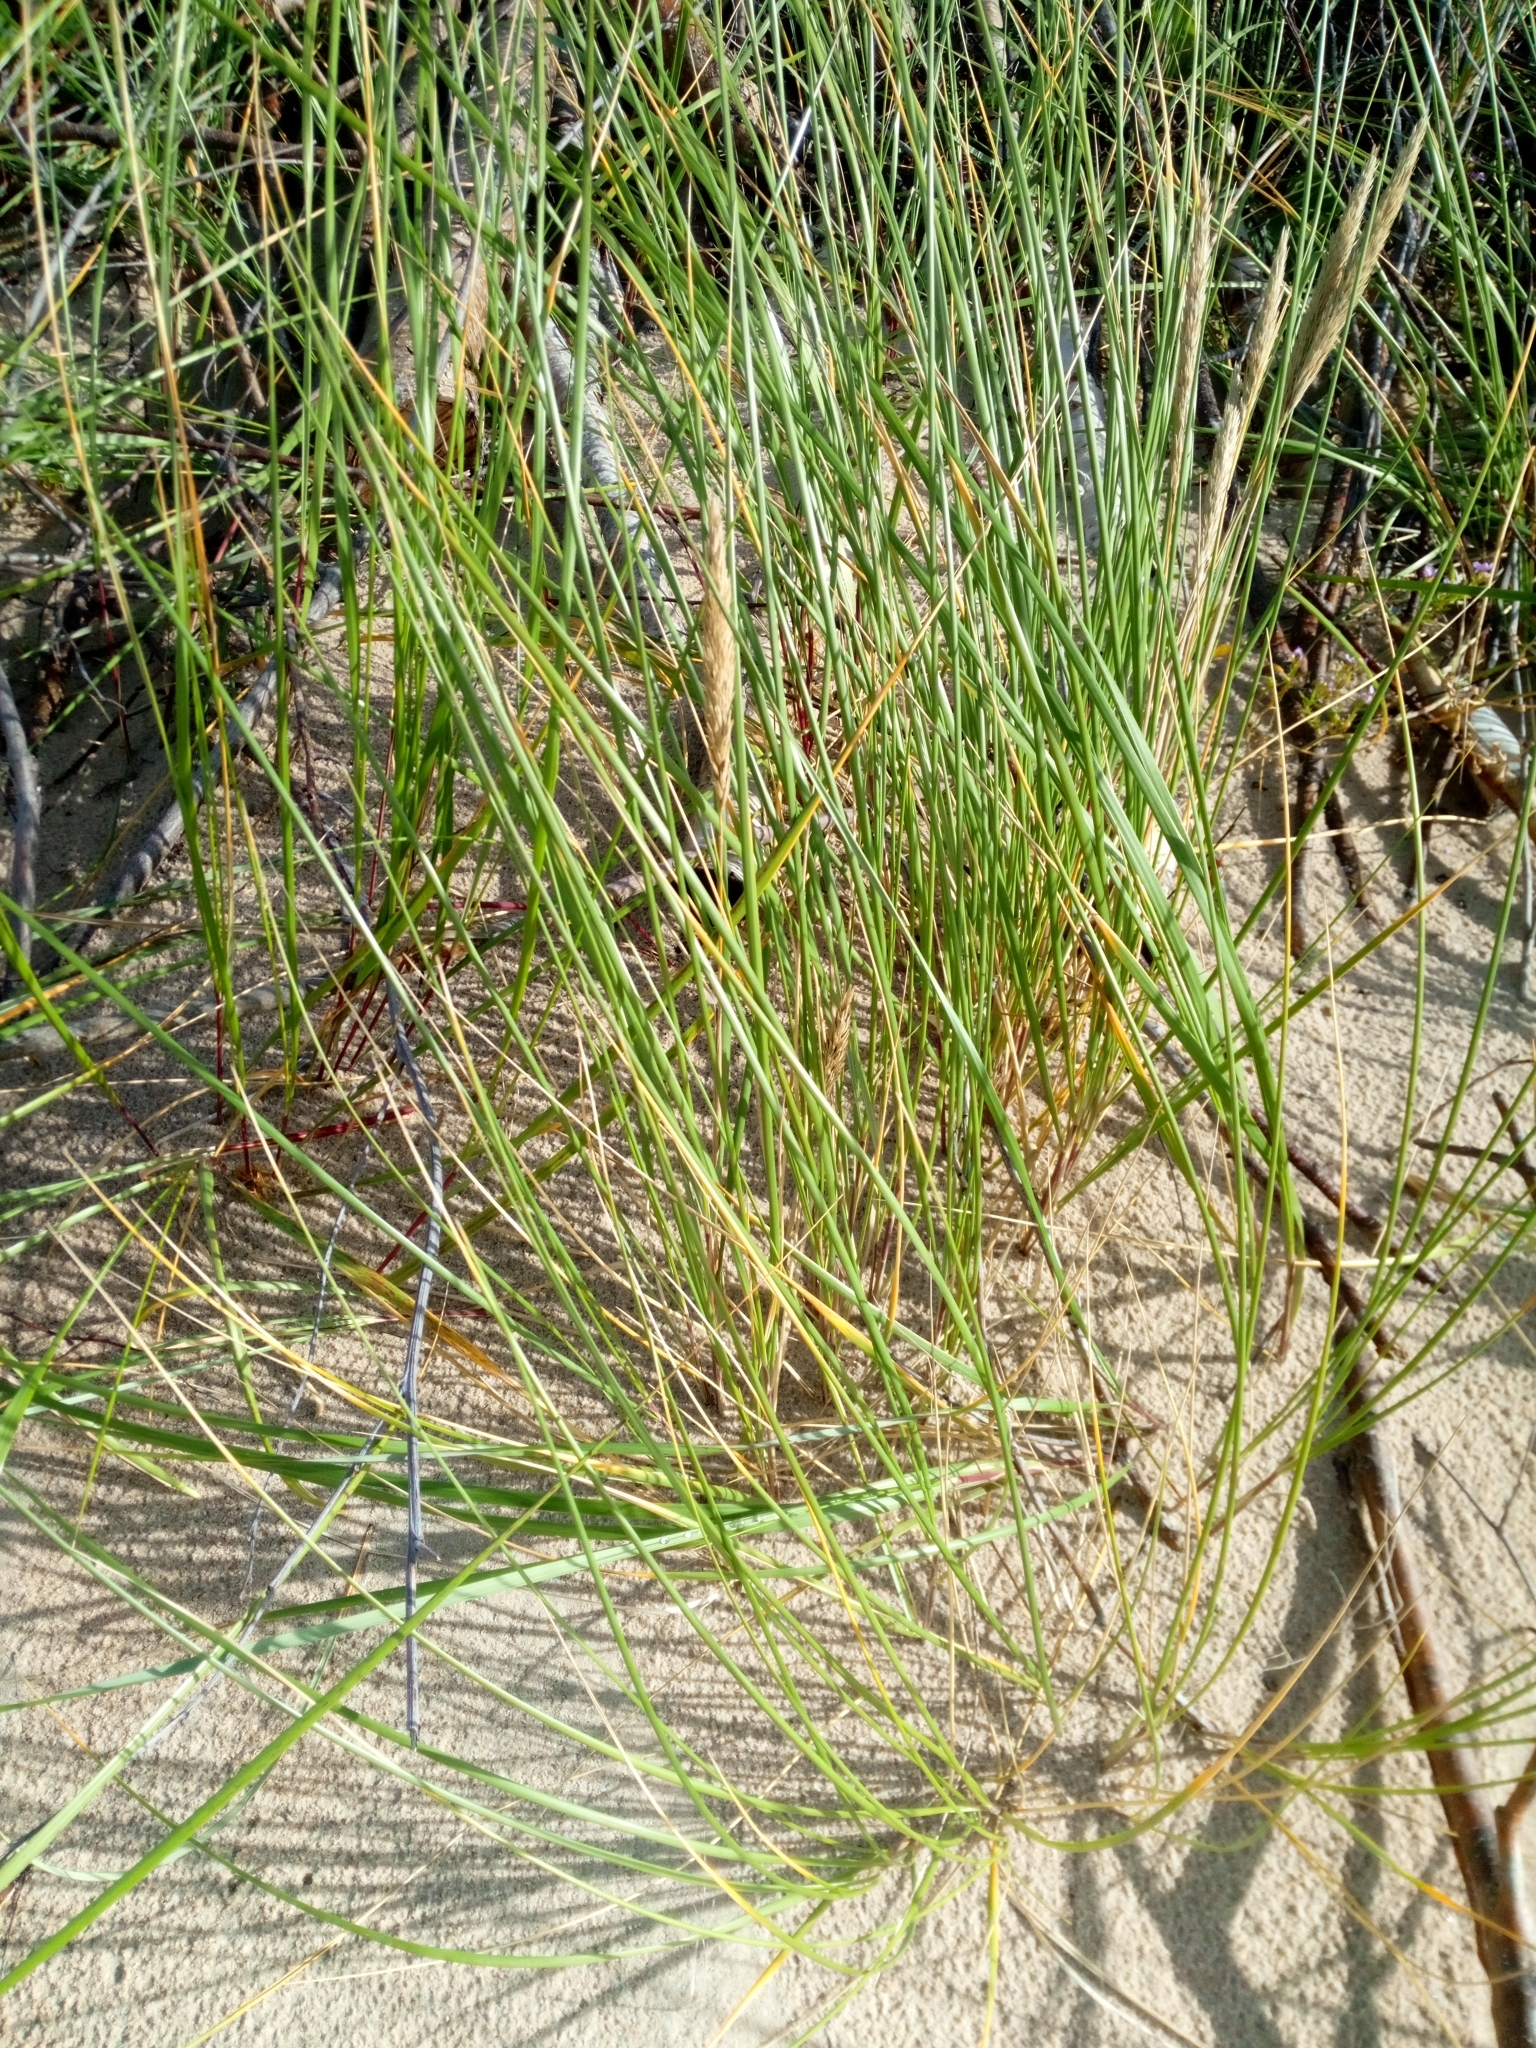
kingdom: Plantae
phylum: Tracheophyta
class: Liliopsida
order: Poales
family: Poaceae
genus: Calamagrostis
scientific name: Calamagrostis arenaria
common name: European beachgrass
